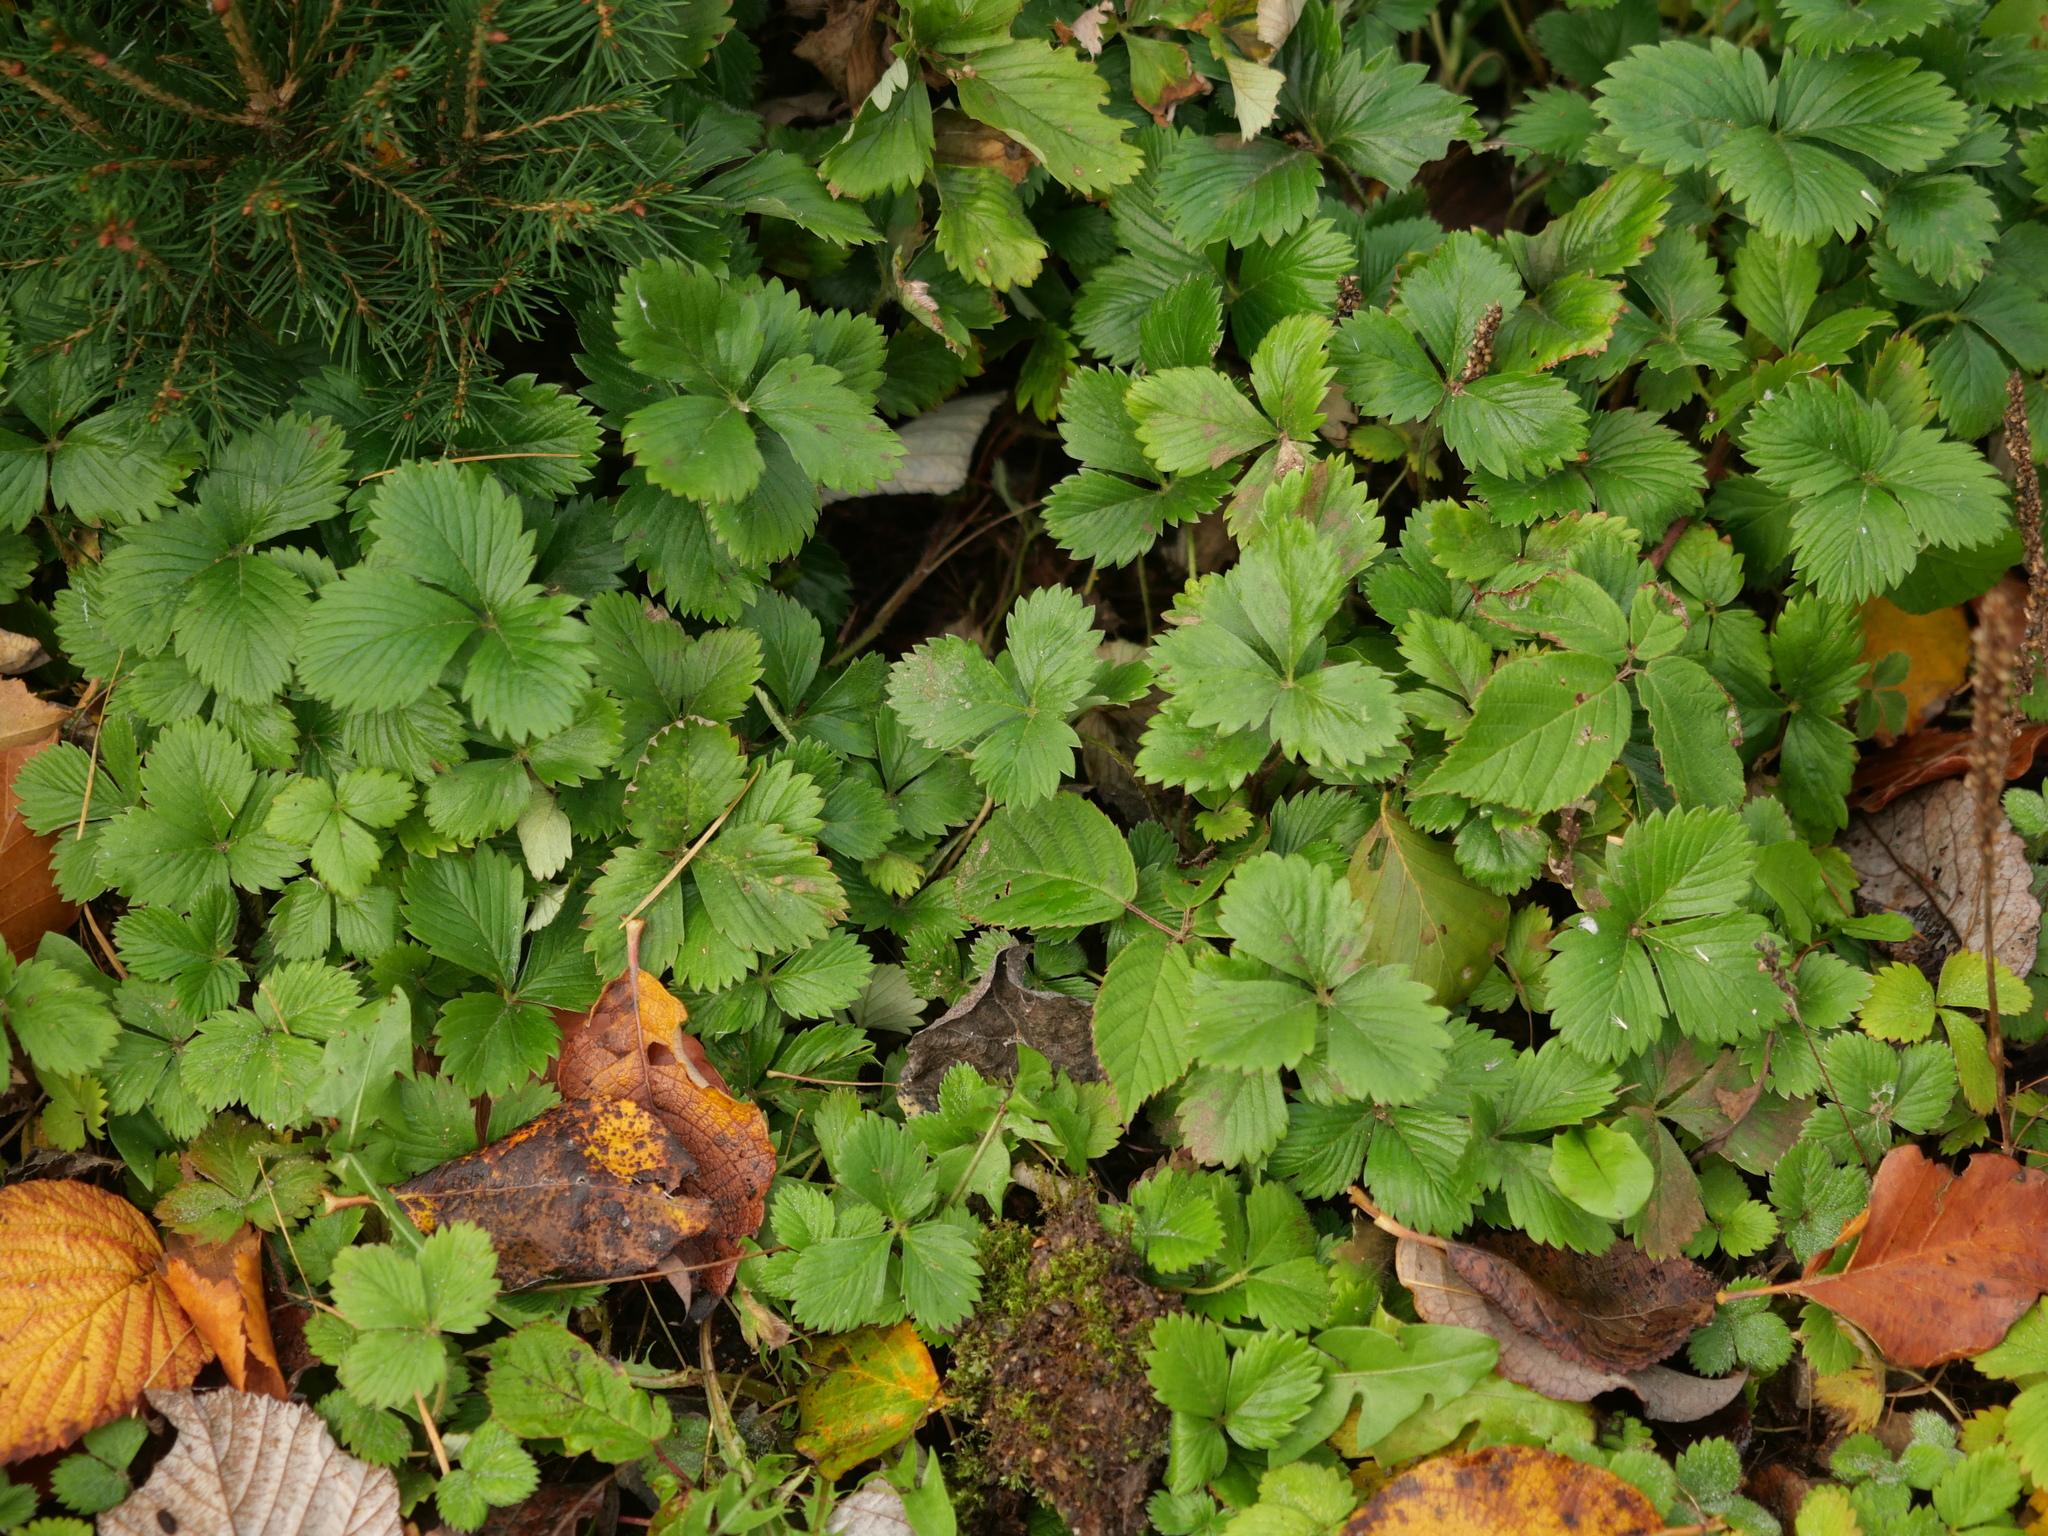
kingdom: Plantae
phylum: Tracheophyta
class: Magnoliopsida
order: Rosales
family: Rosaceae
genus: Fragaria
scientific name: Fragaria vesca
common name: Wild strawberry
